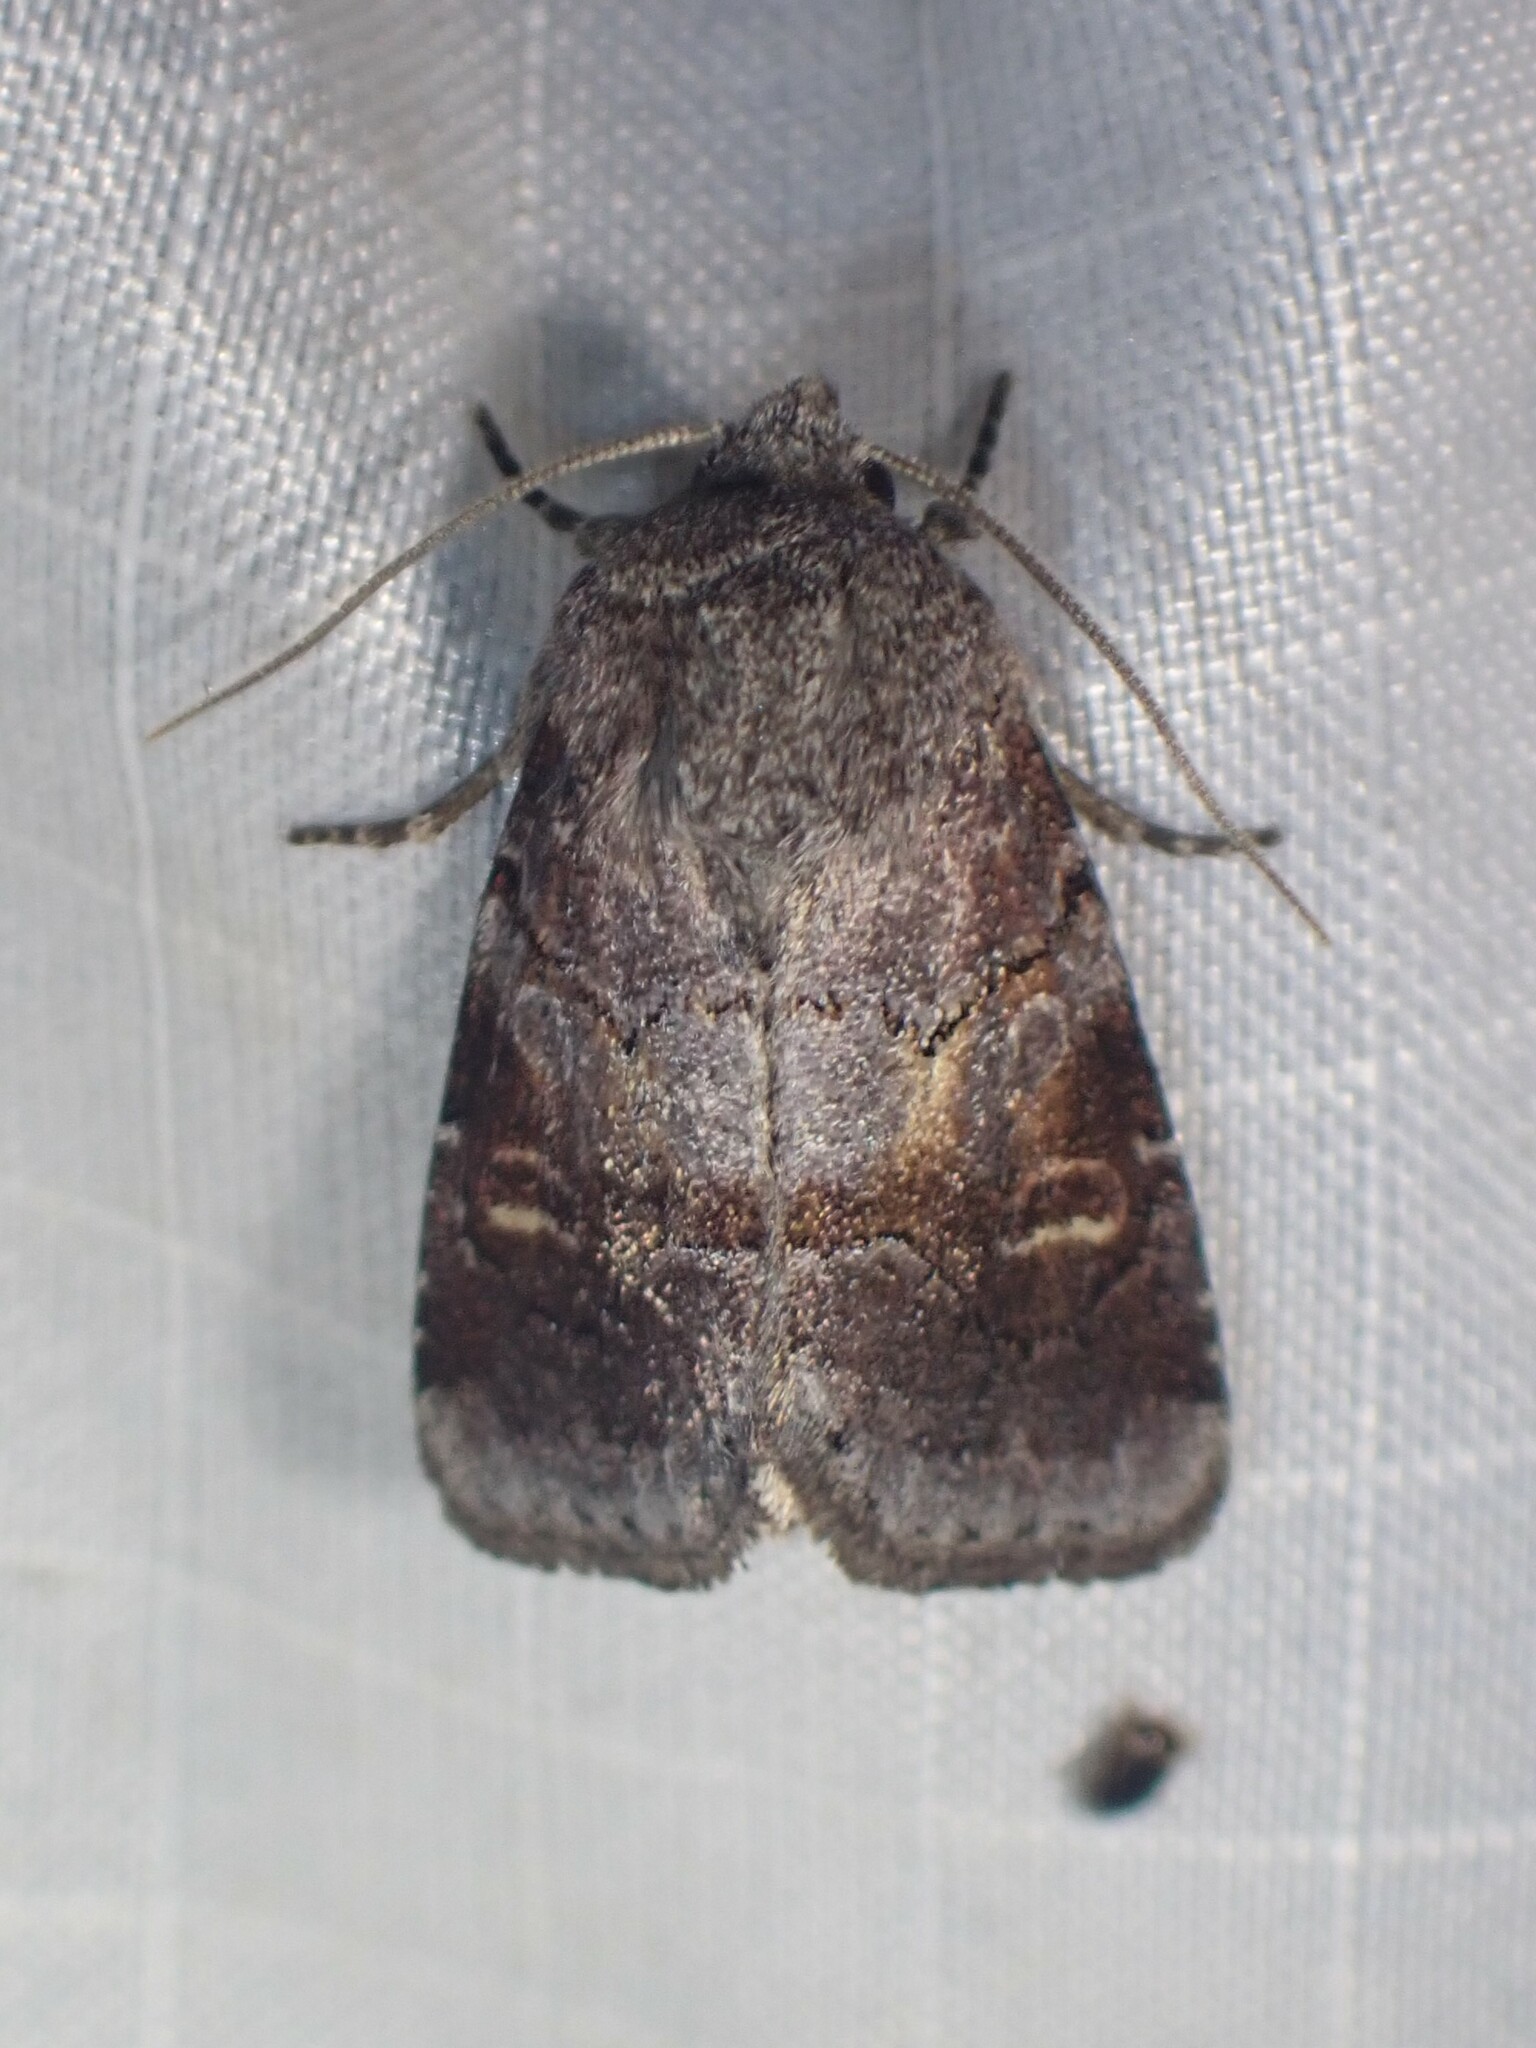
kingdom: Animalia
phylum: Arthropoda
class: Insecta
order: Lepidoptera
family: Noctuidae
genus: Oligia
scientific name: Oligia minuscula
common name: Small brocade
